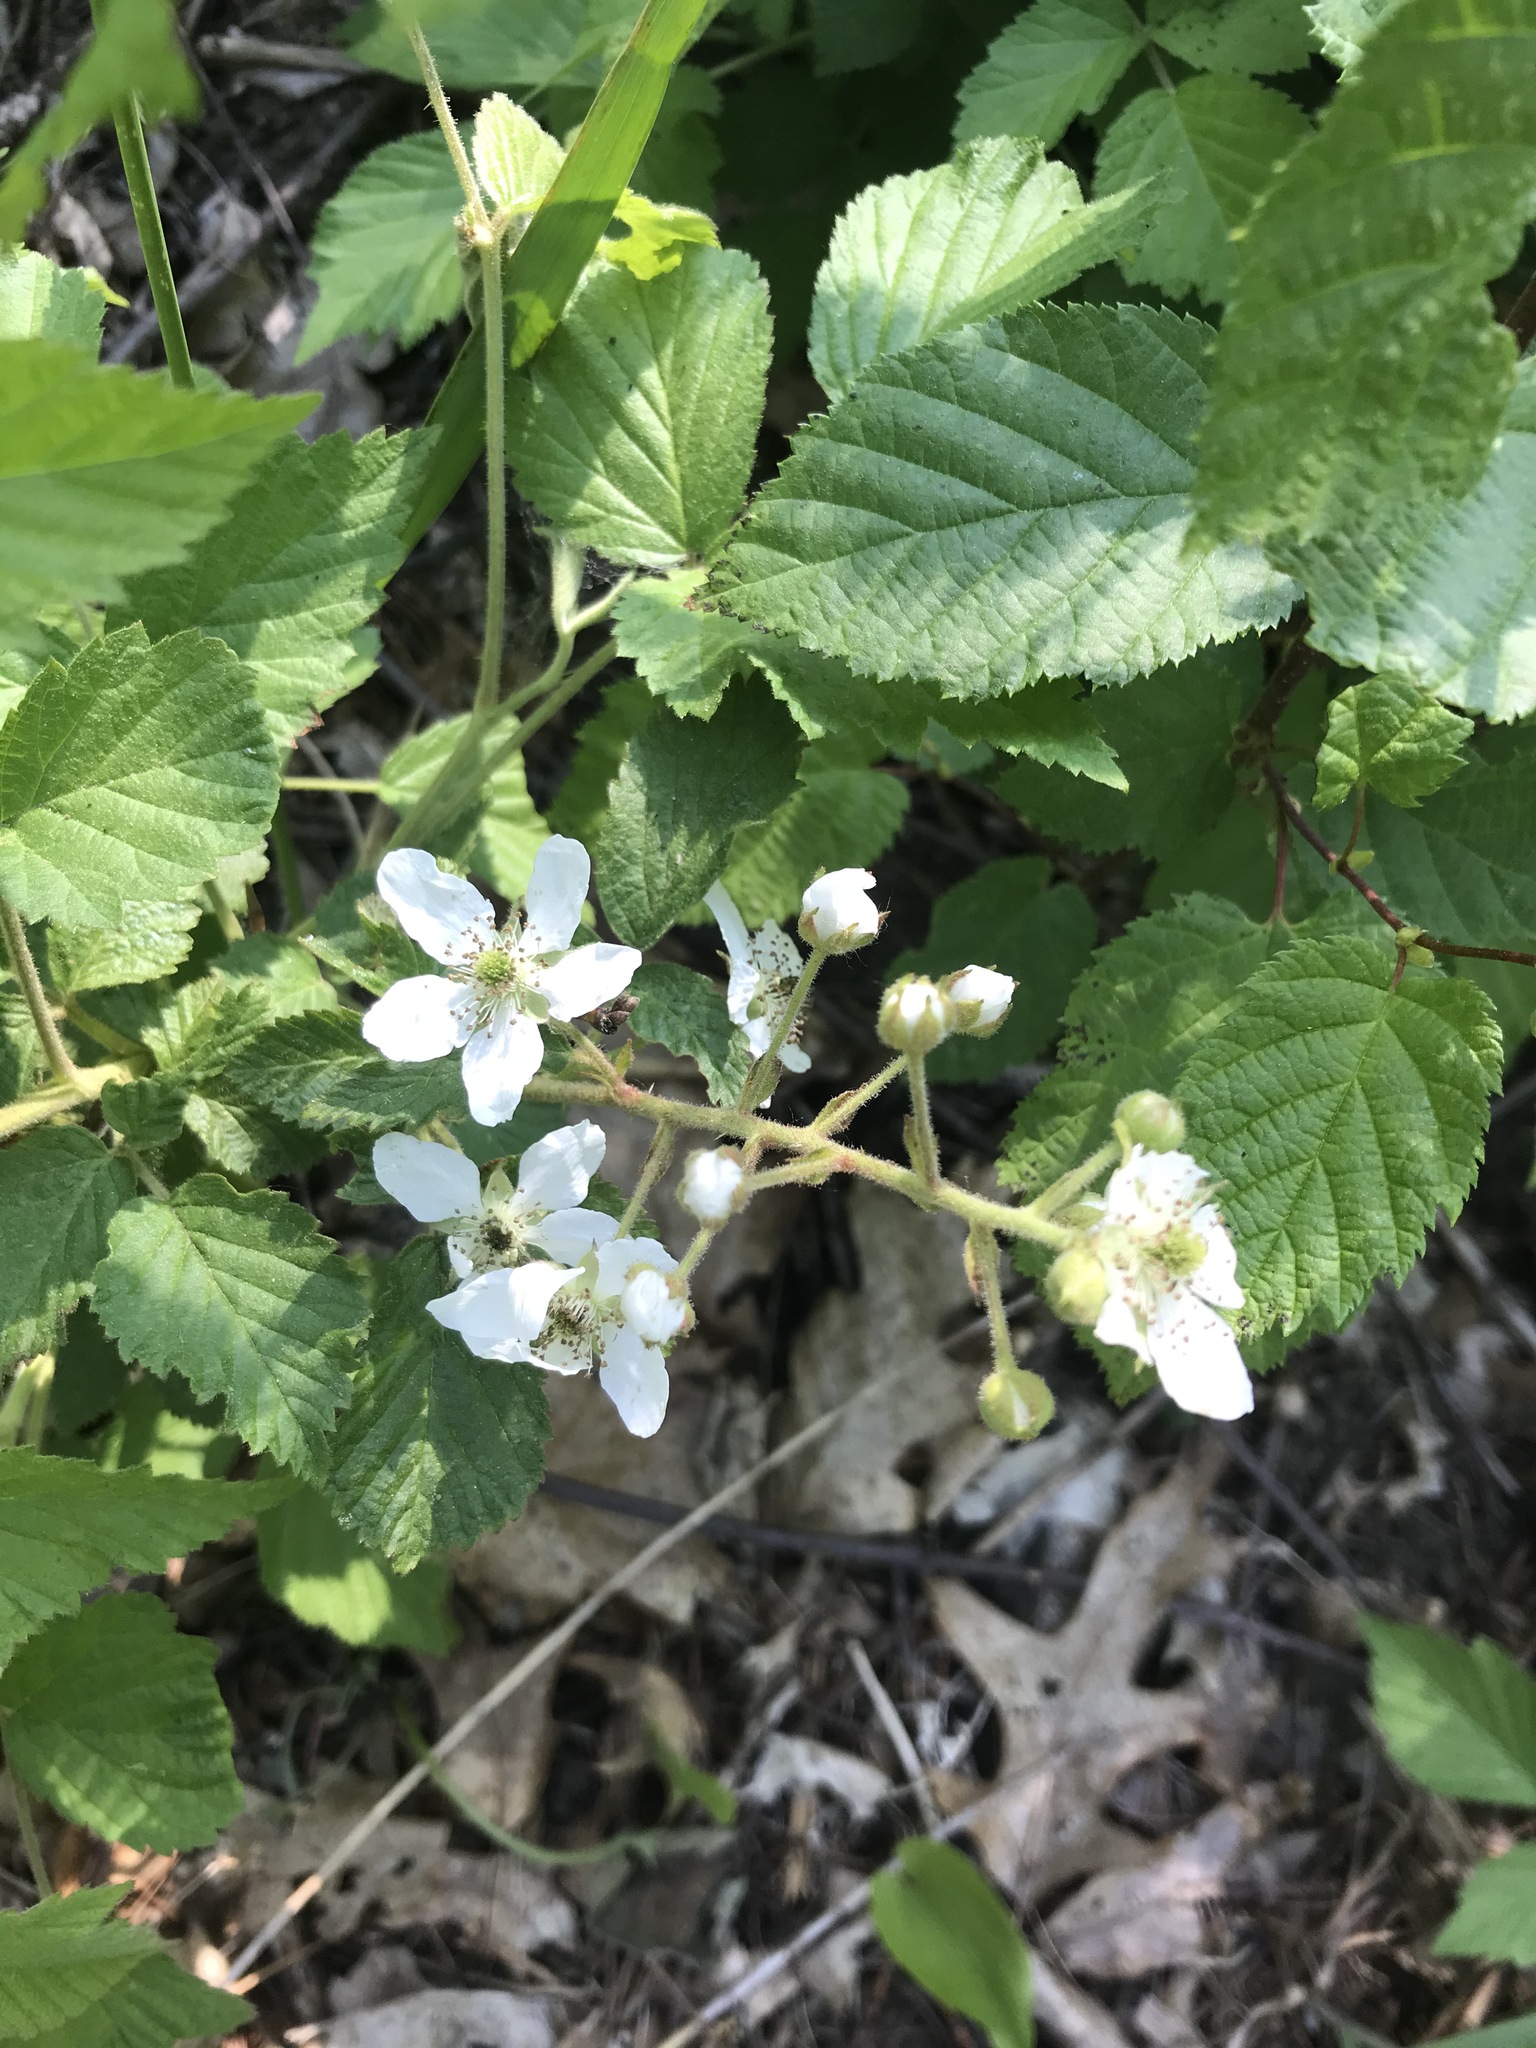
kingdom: Plantae
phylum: Tracheophyta
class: Magnoliopsida
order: Rosales
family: Rosaceae
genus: Rubus
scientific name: Rubus allegheniensis
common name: Allegheny blackberry
